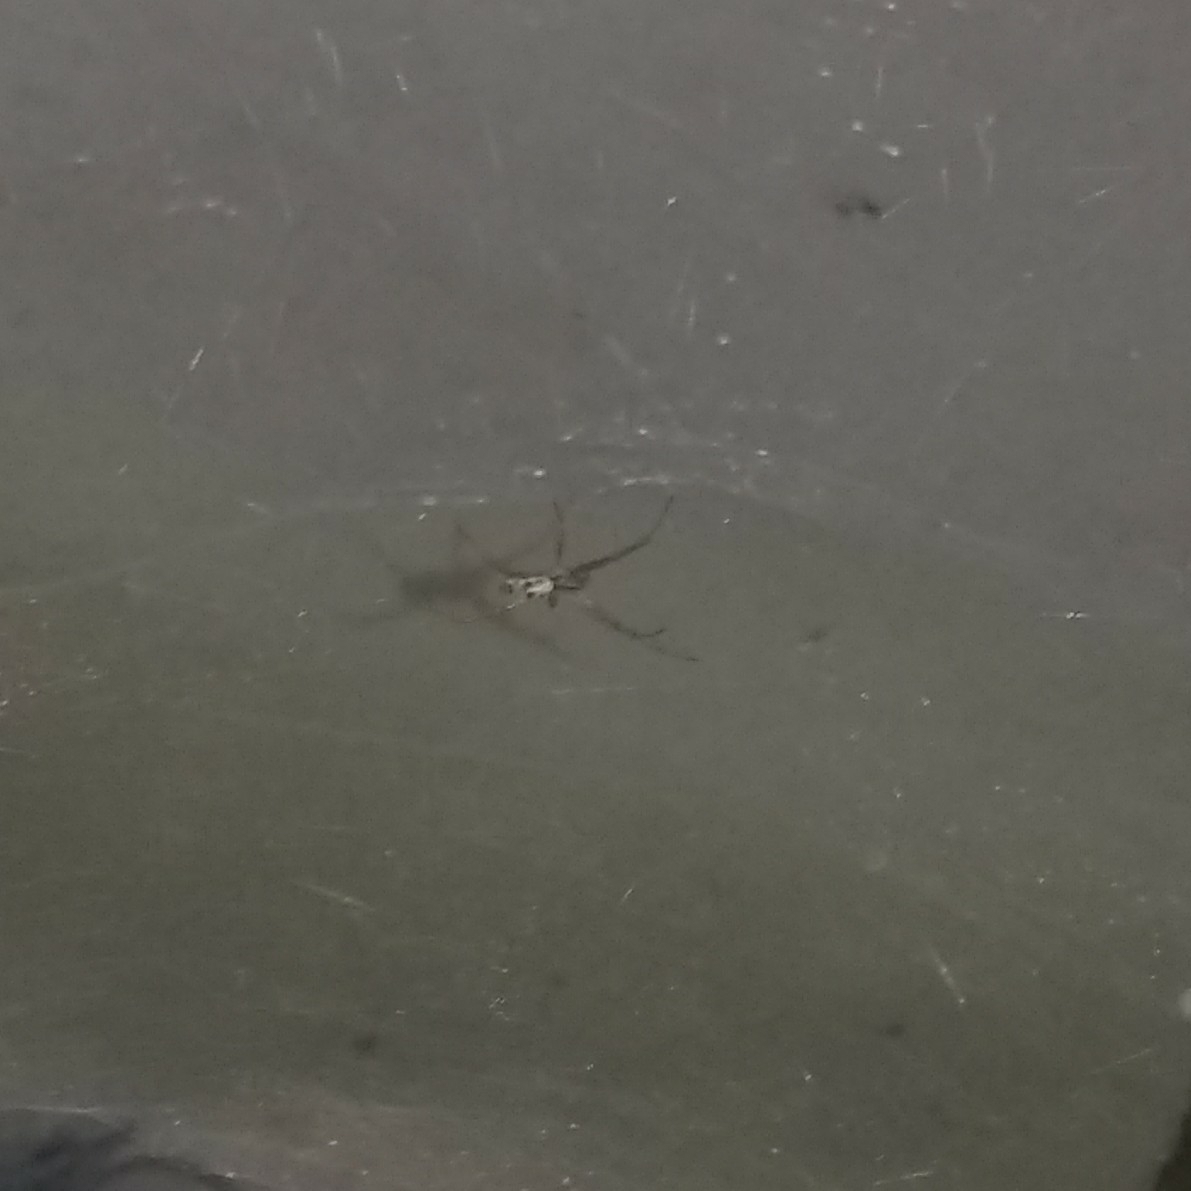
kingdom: Animalia
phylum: Arthropoda
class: Arachnida
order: Araneae
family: Araneidae
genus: Cyrtophora
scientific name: Cyrtophora cicatrosa
